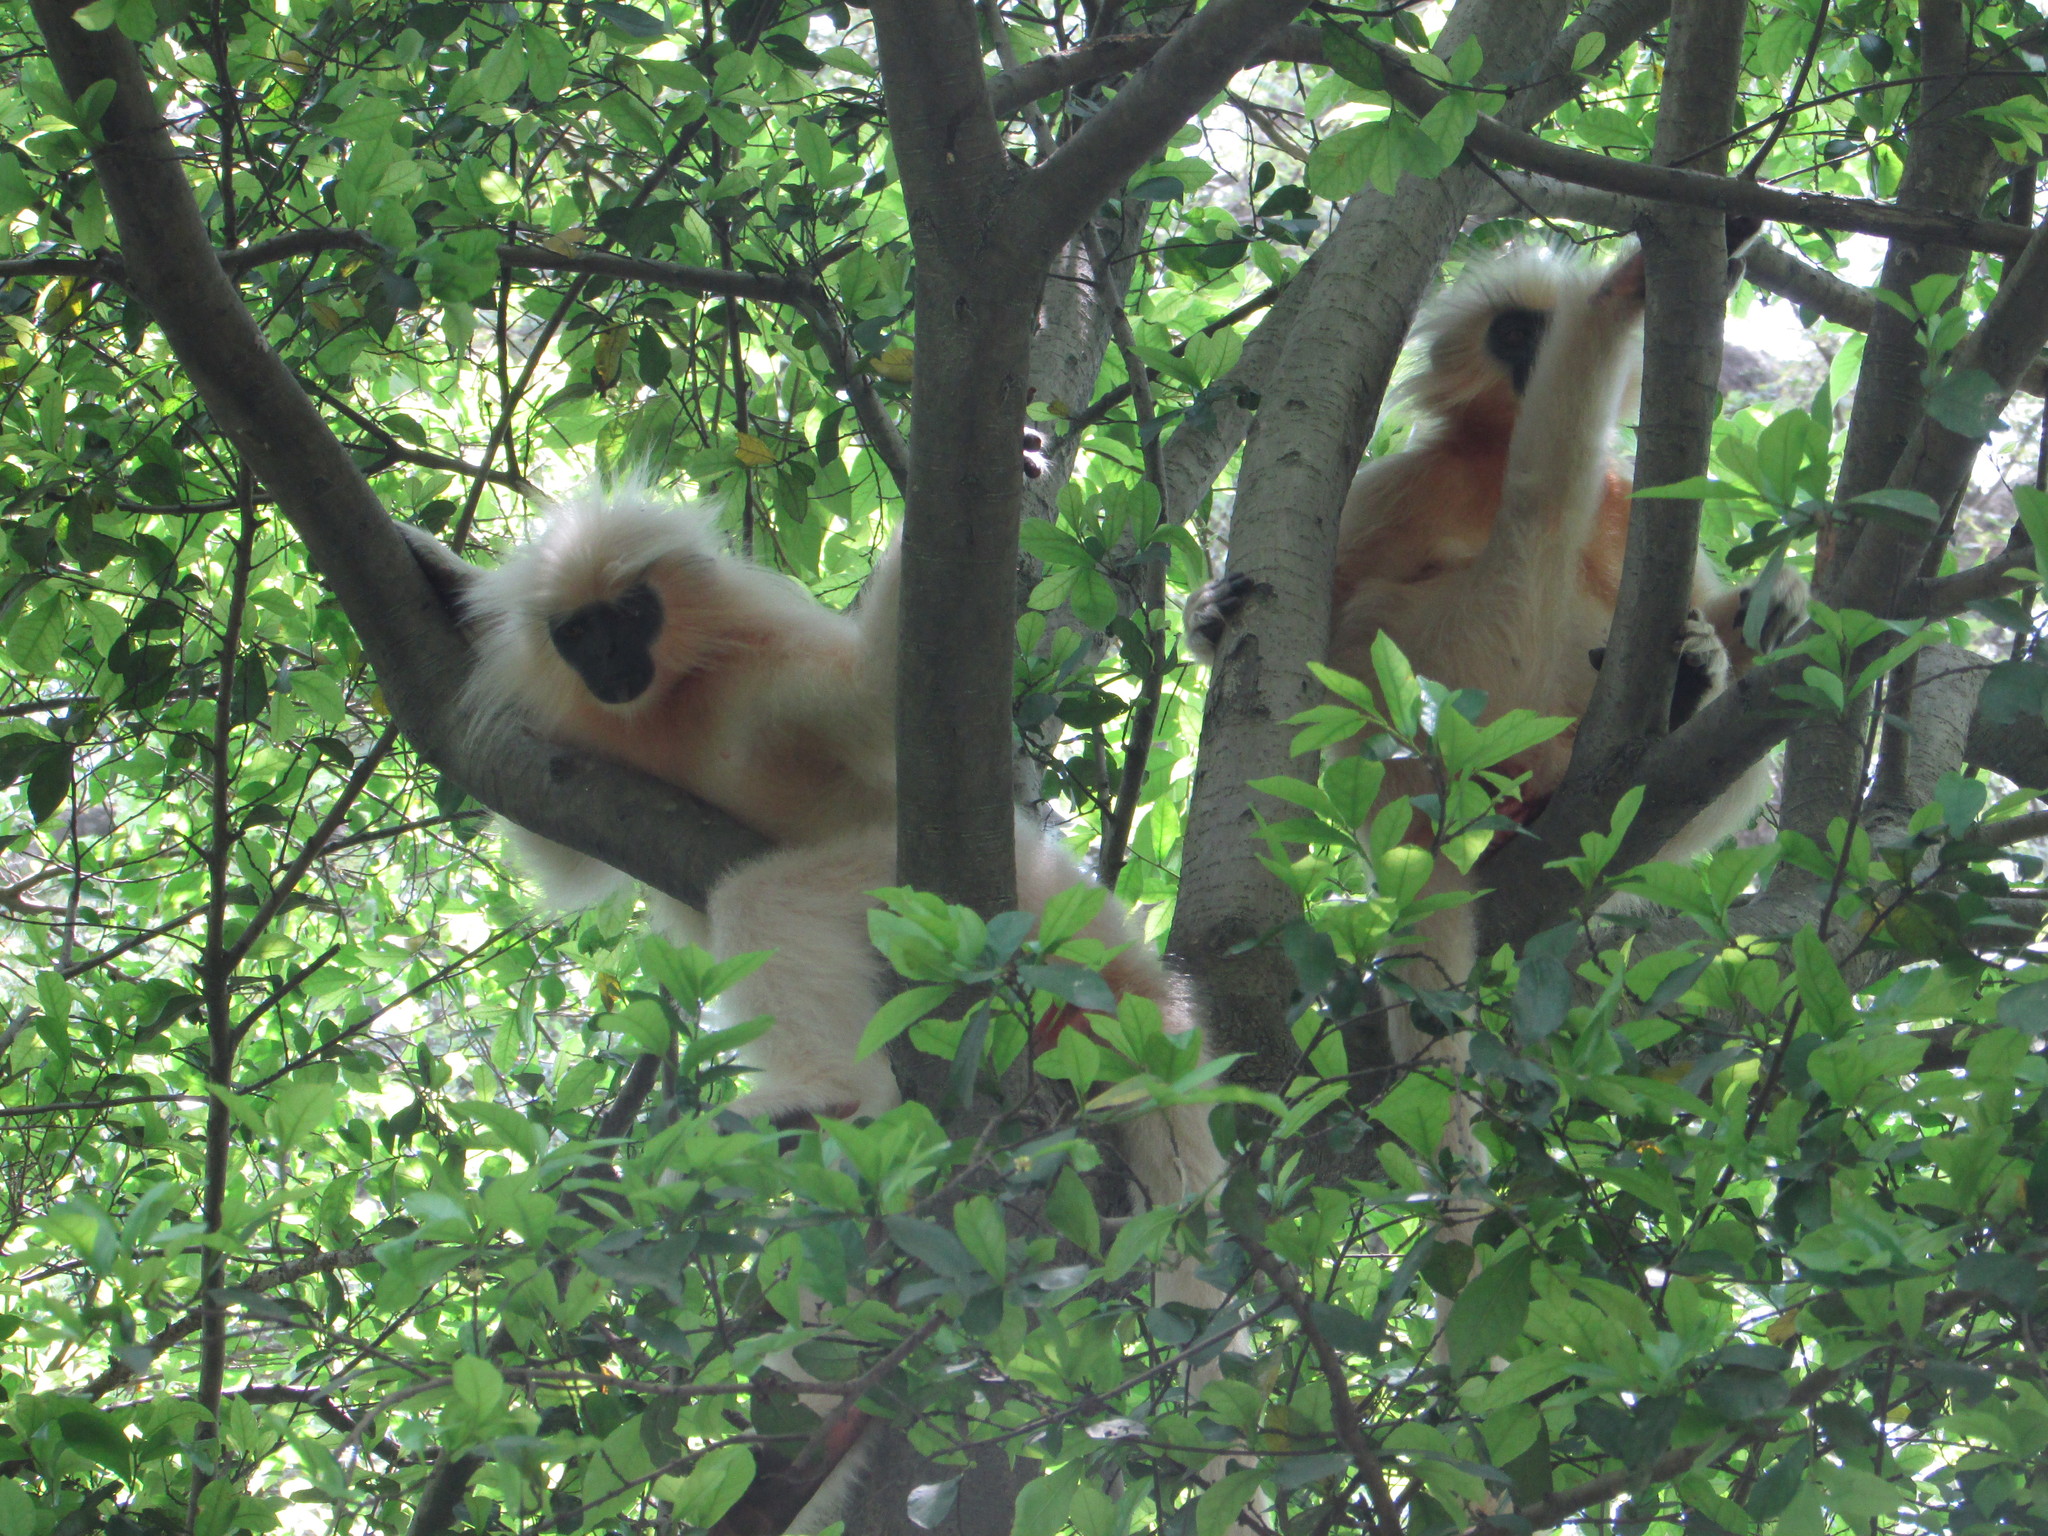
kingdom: Animalia
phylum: Chordata
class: Mammalia
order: Primates
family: Cercopithecidae
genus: Trachypithecus
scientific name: Trachypithecus geei
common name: Gee's golden langur
